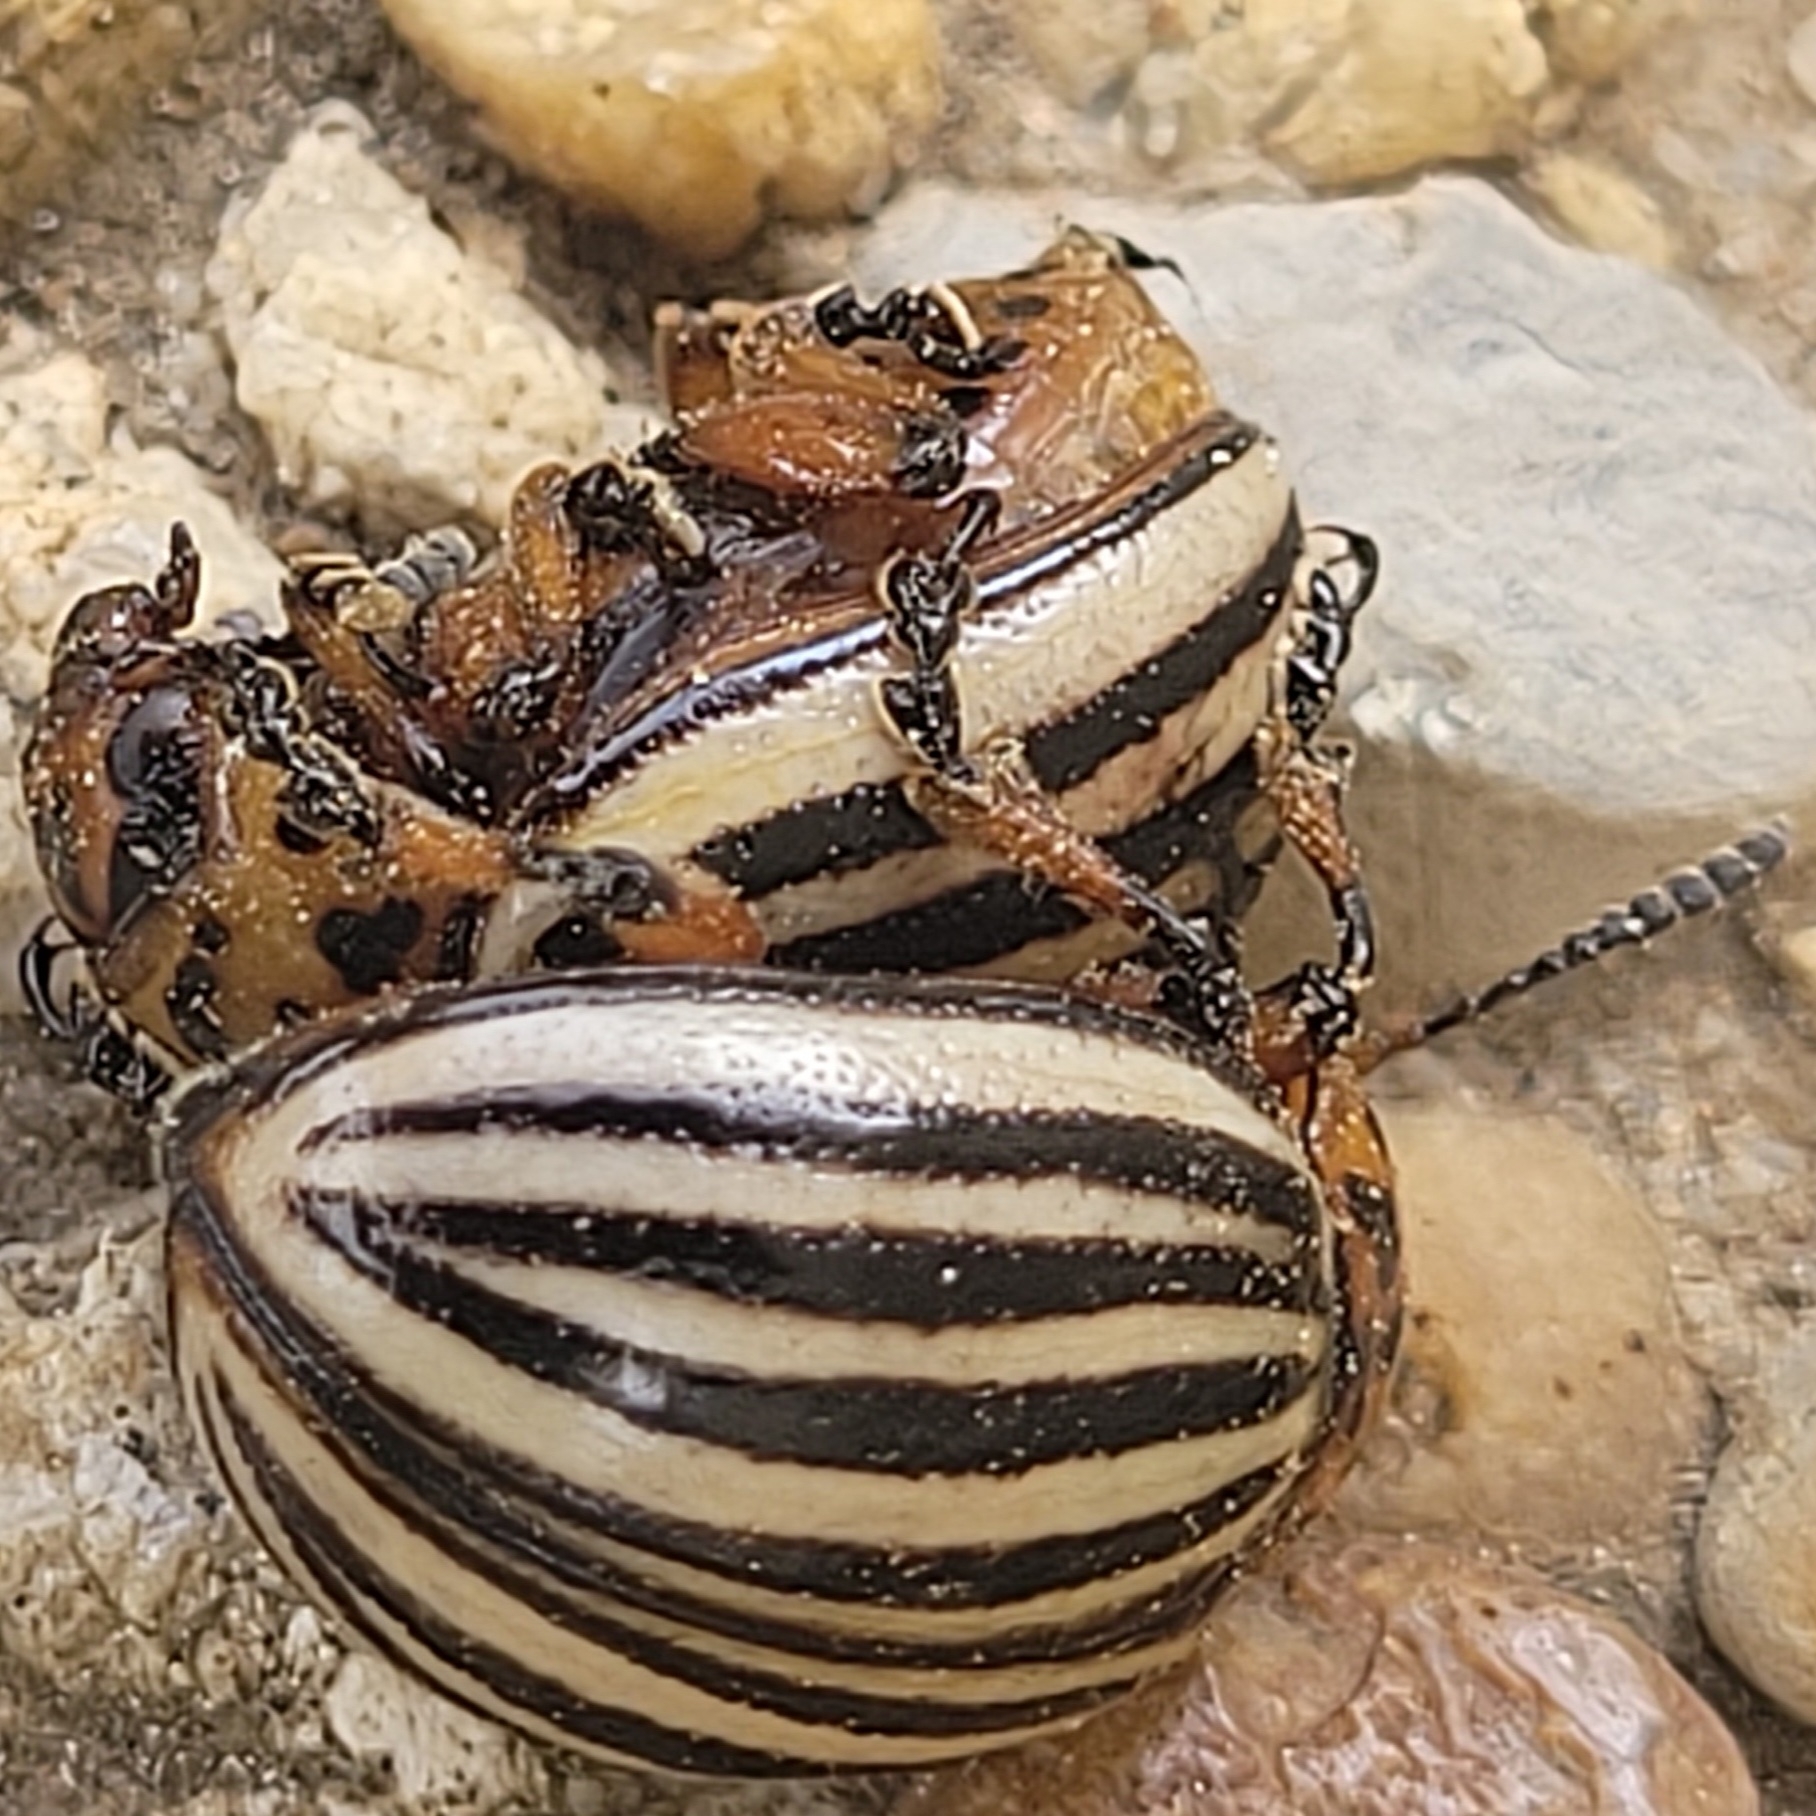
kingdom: Animalia
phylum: Arthropoda
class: Insecta
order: Coleoptera
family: Chrysomelidae
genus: Leptinotarsa
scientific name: Leptinotarsa decemlineata
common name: Colorado potato beetle
